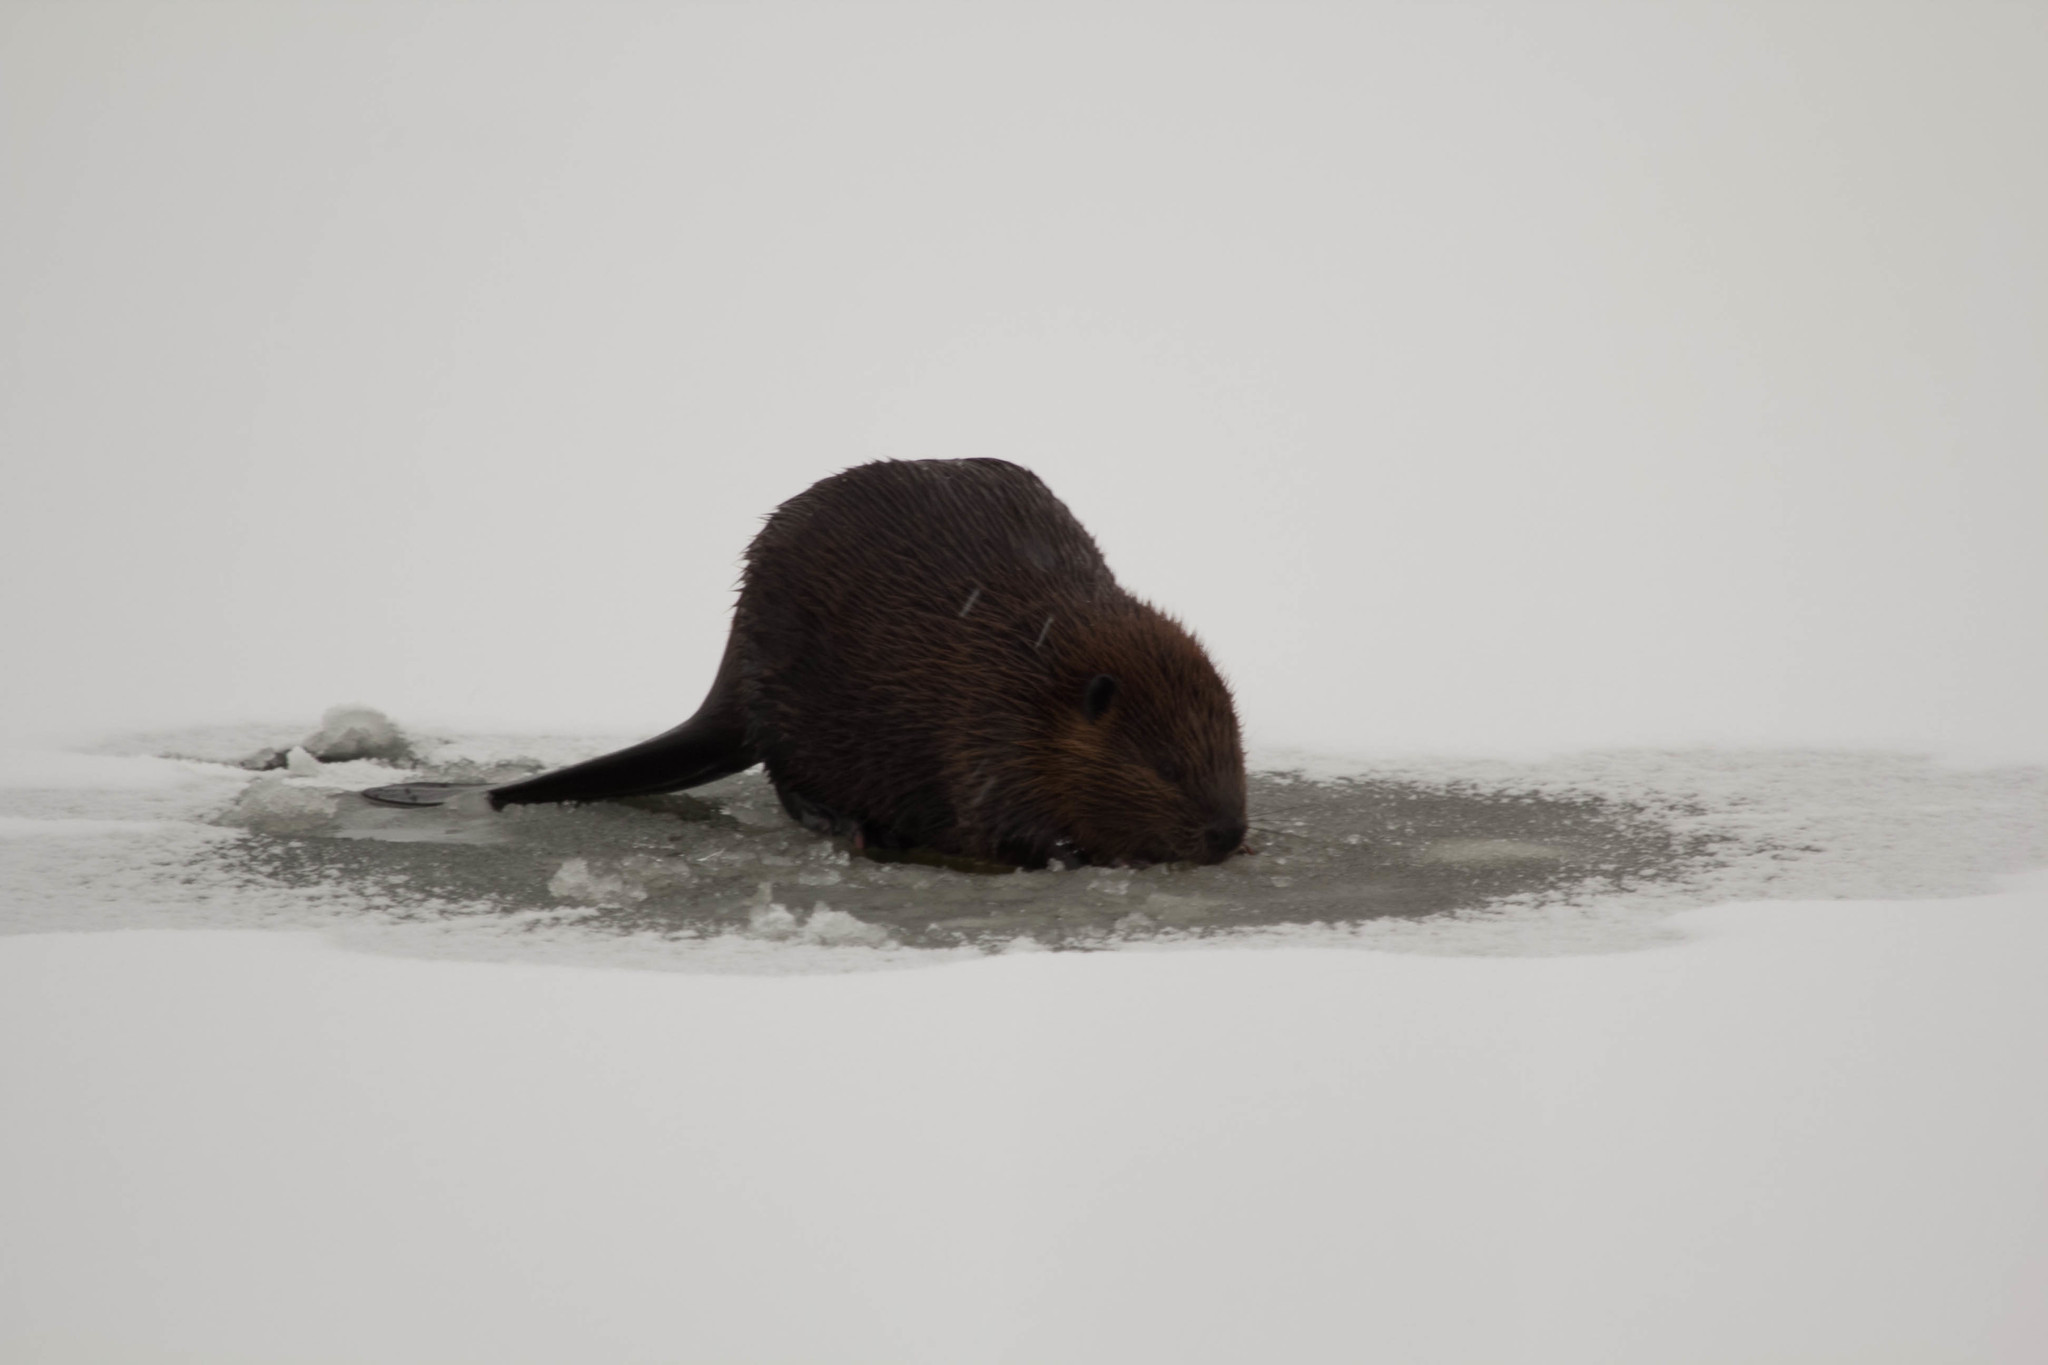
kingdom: Animalia
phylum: Chordata
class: Mammalia
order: Rodentia
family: Castoridae
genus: Castor
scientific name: Castor canadensis
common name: American beaver
